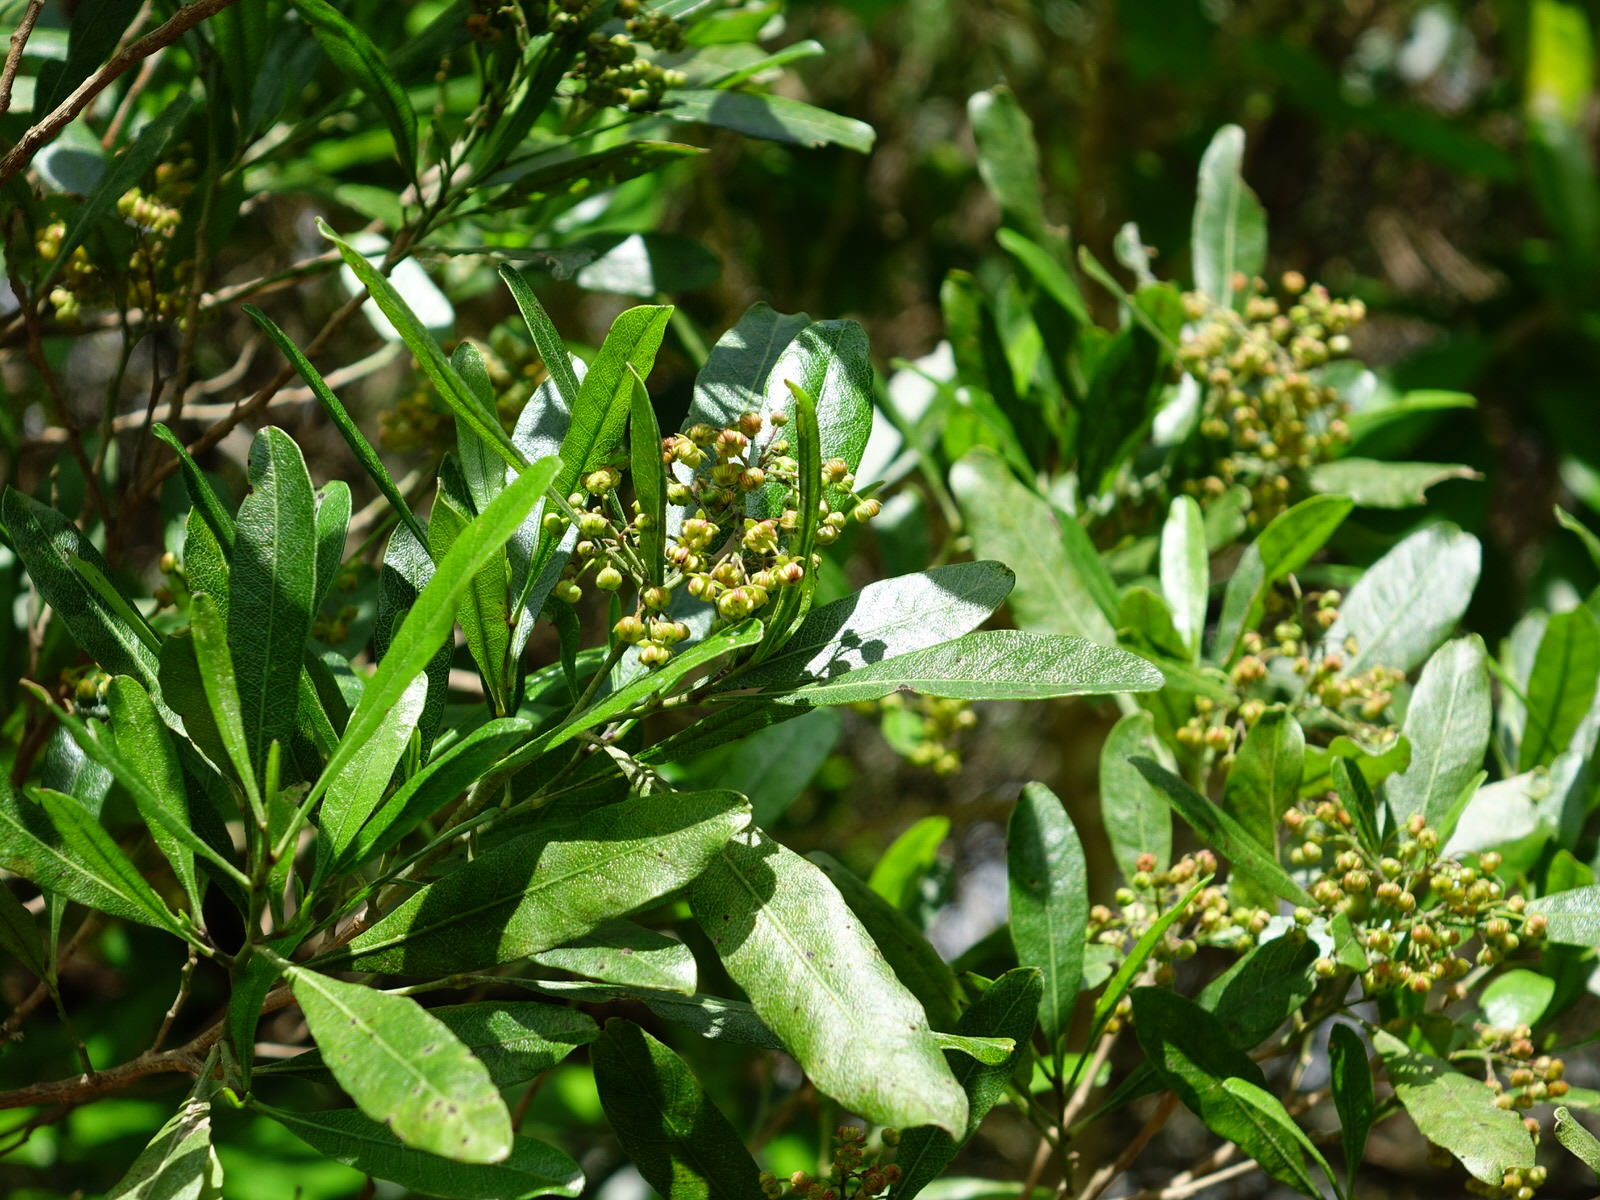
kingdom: Plantae
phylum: Tracheophyta
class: Magnoliopsida
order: Sapindales
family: Sapindaceae
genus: Dodonaea
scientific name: Dodonaea viscosa
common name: Hopbush
